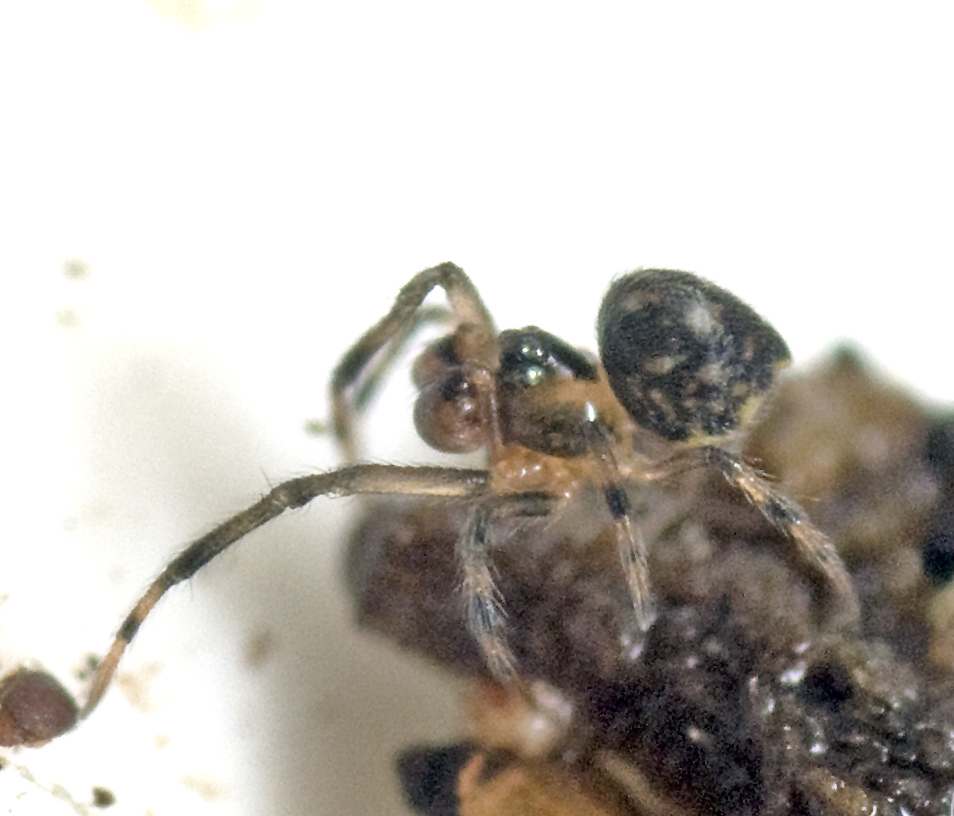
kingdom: Animalia
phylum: Arthropoda
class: Arachnida
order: Araneae
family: Mysmenidae
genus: Mysmena
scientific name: Mysmena
